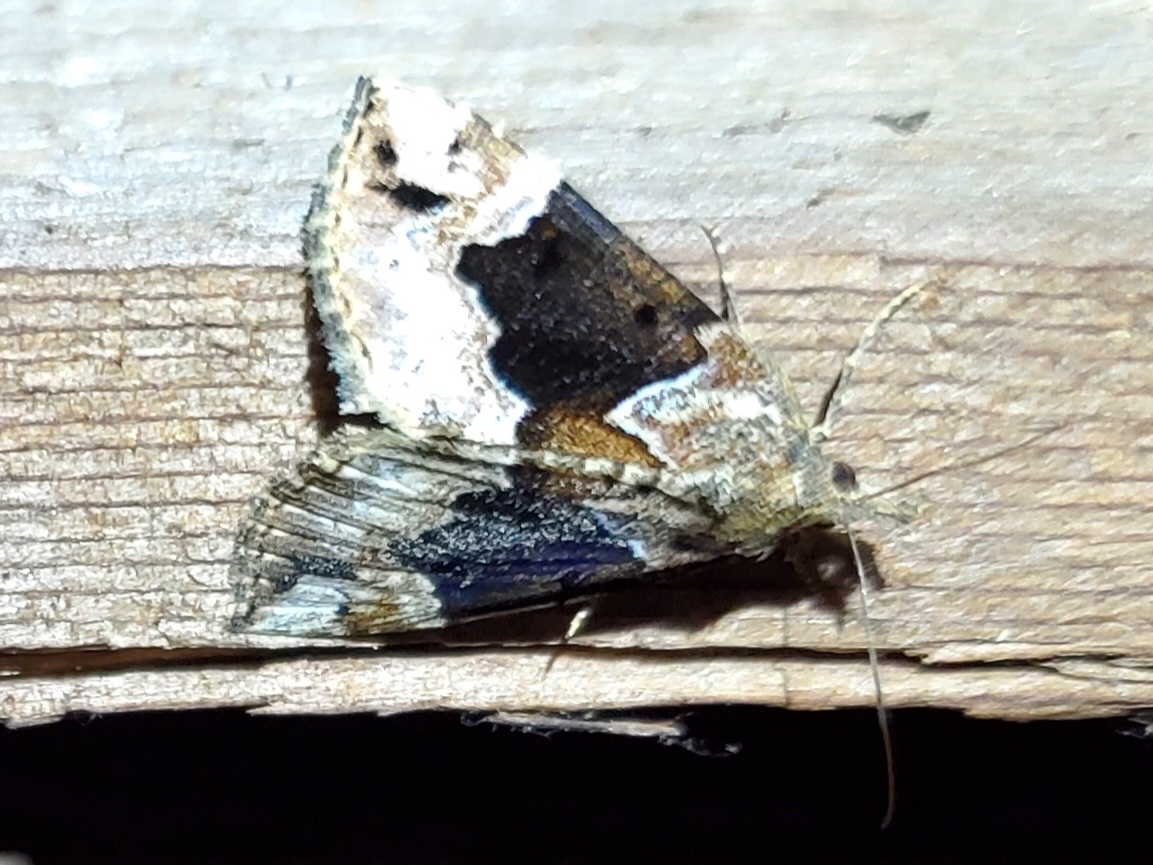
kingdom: Animalia
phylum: Arthropoda
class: Insecta
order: Lepidoptera
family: Erebidae
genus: Hypena
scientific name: Hypena palparia
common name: Mottled bomolocha moth
